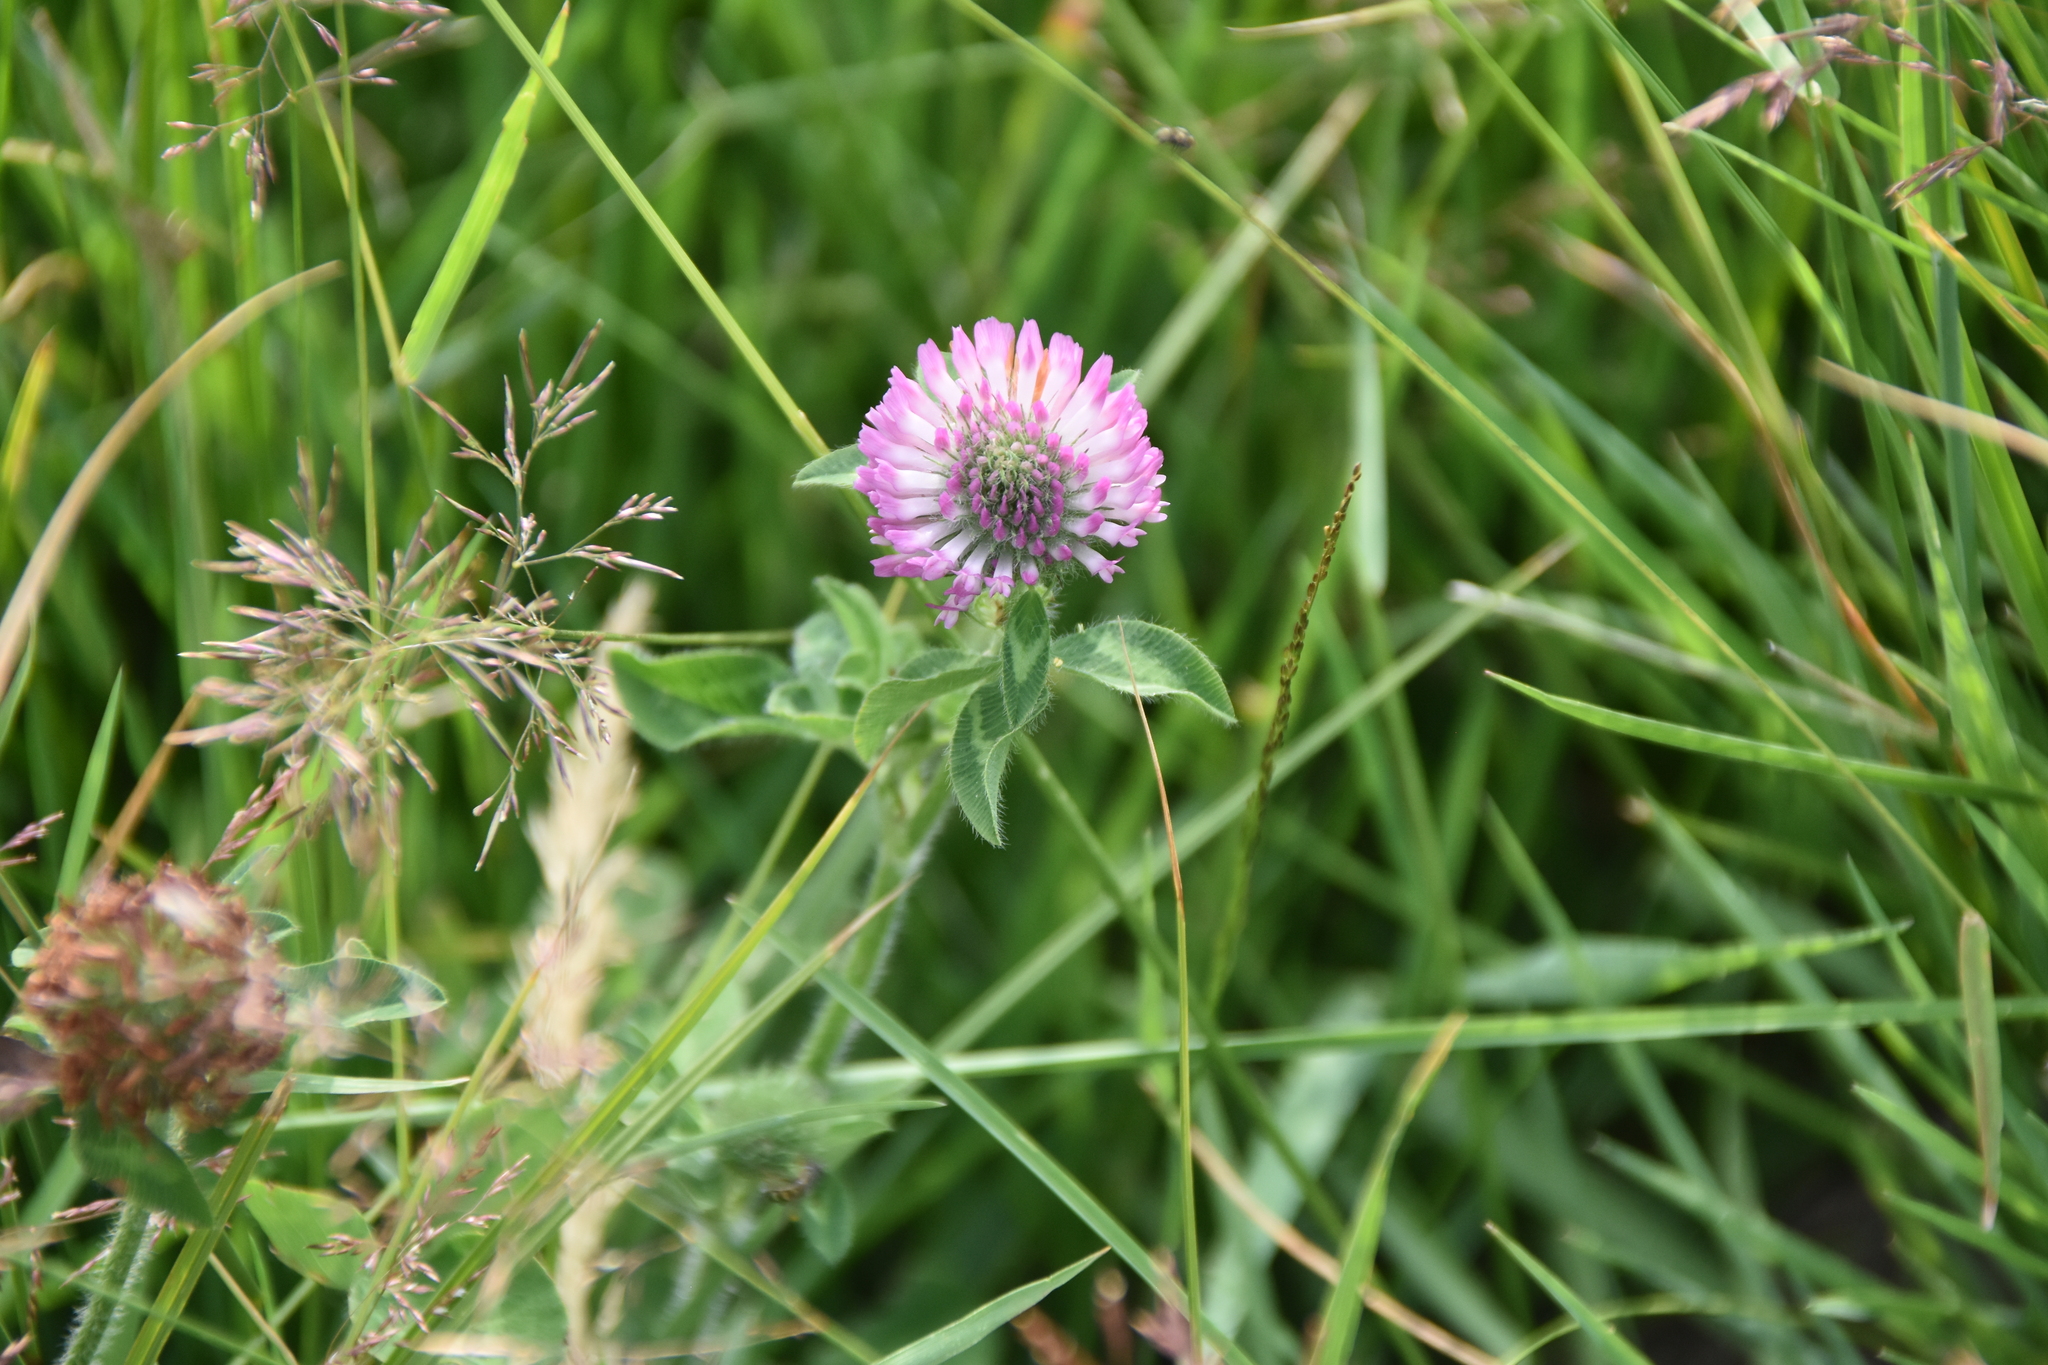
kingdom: Plantae
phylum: Tracheophyta
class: Magnoliopsida
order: Fabales
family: Fabaceae
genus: Trifolium
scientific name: Trifolium pratense
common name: Red clover
